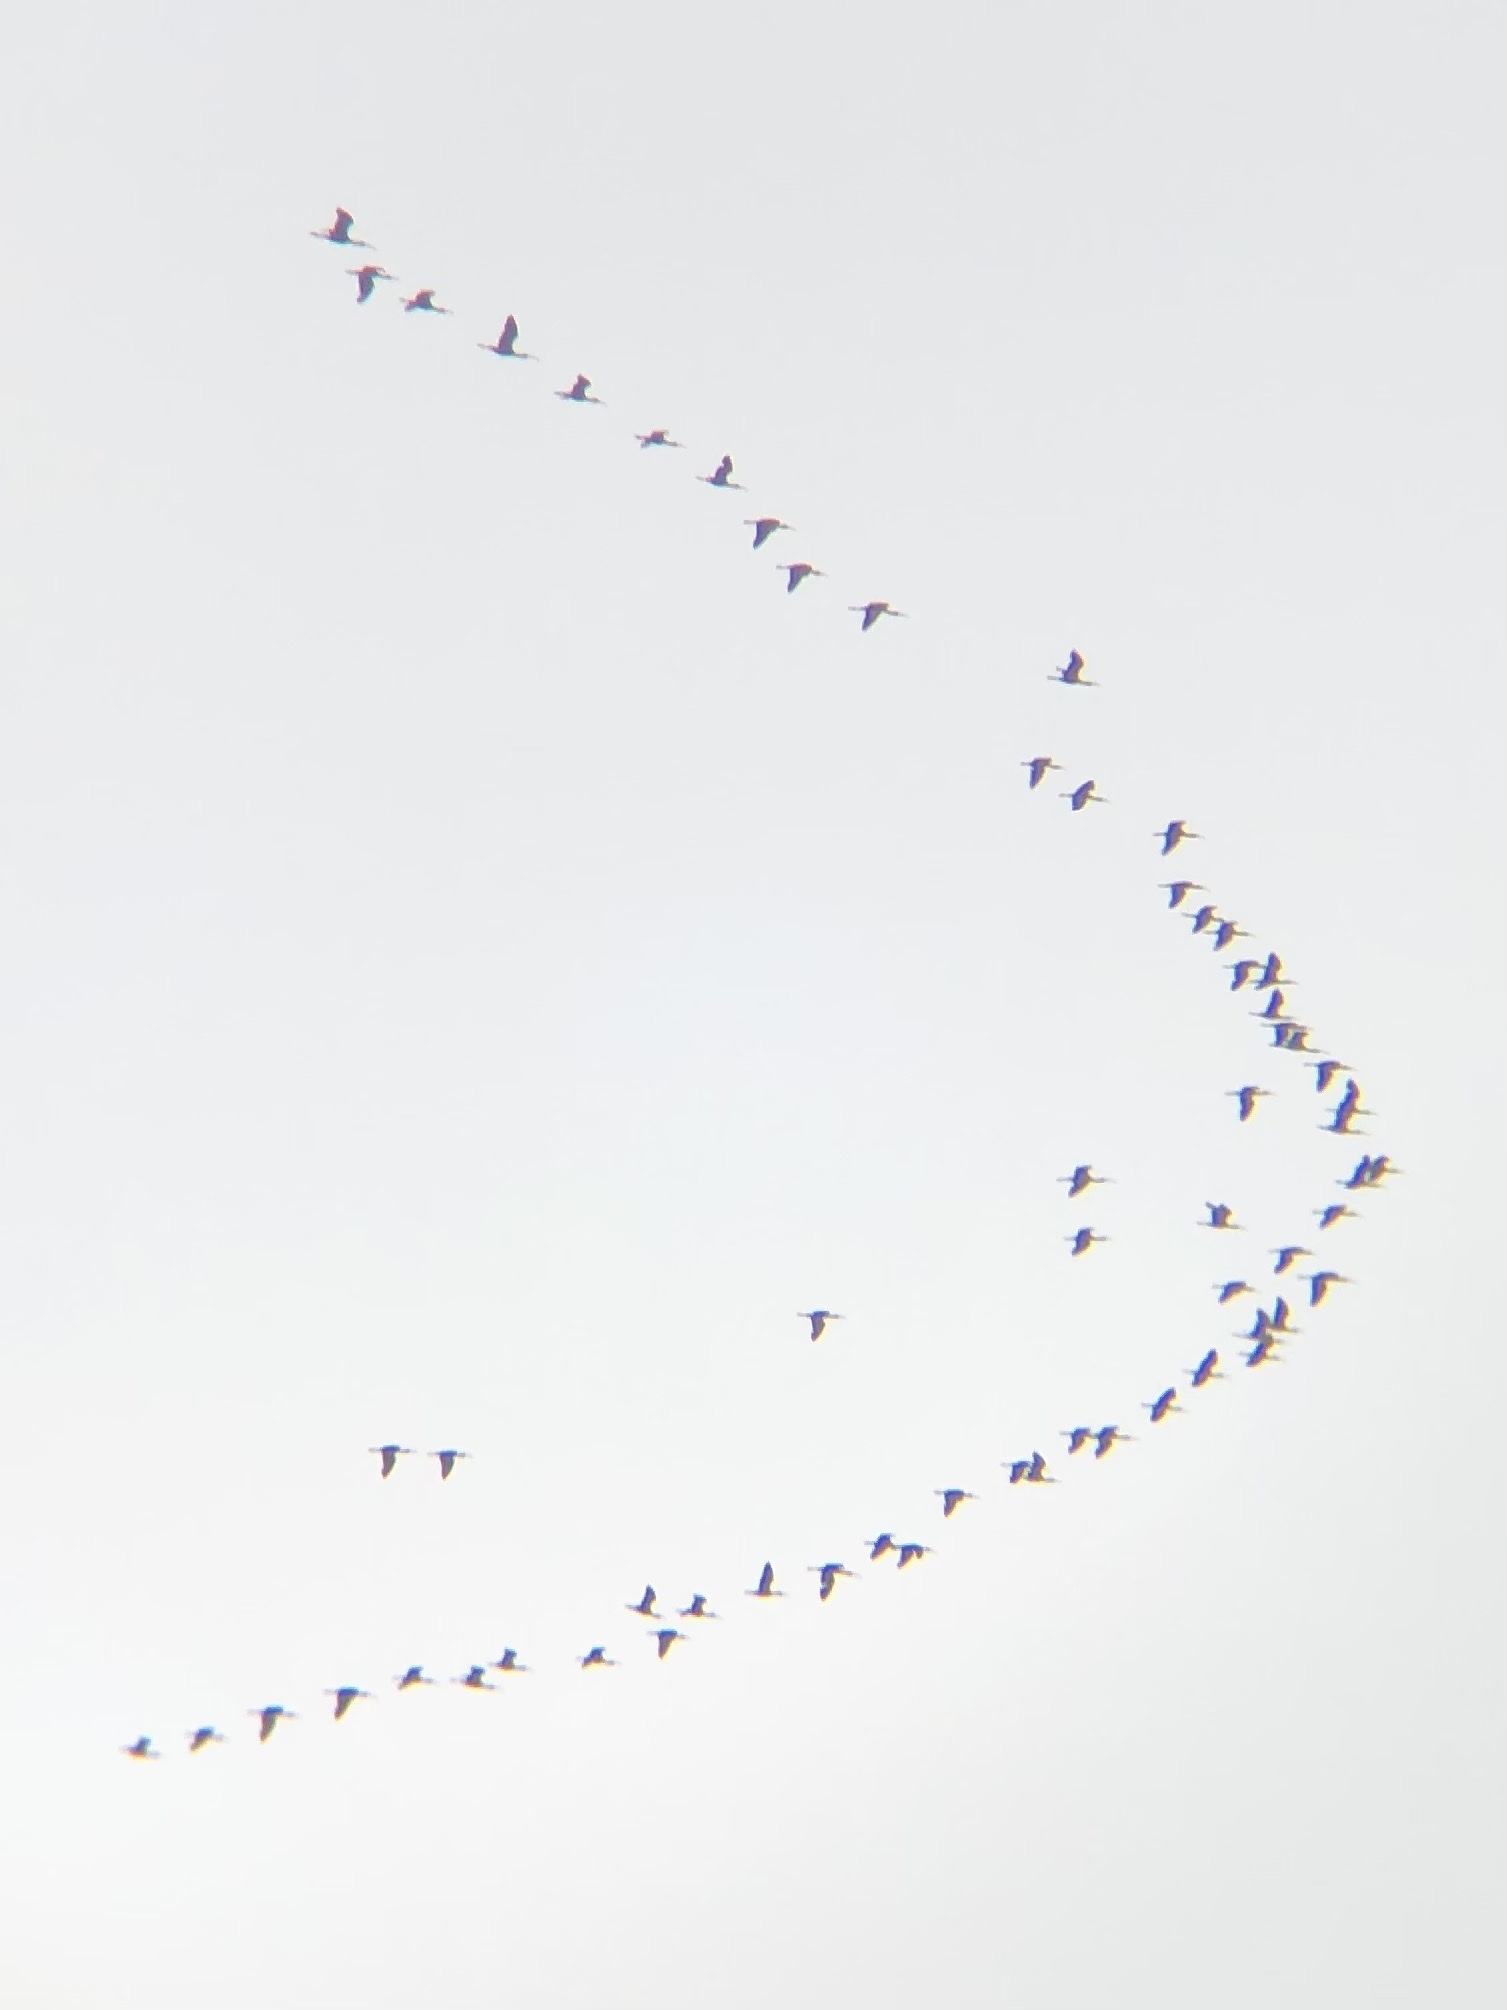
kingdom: Animalia
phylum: Chordata
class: Aves
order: Pelecaniformes
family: Threskiornithidae
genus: Plegadis
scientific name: Plegadis chihi
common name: White-faced ibis
